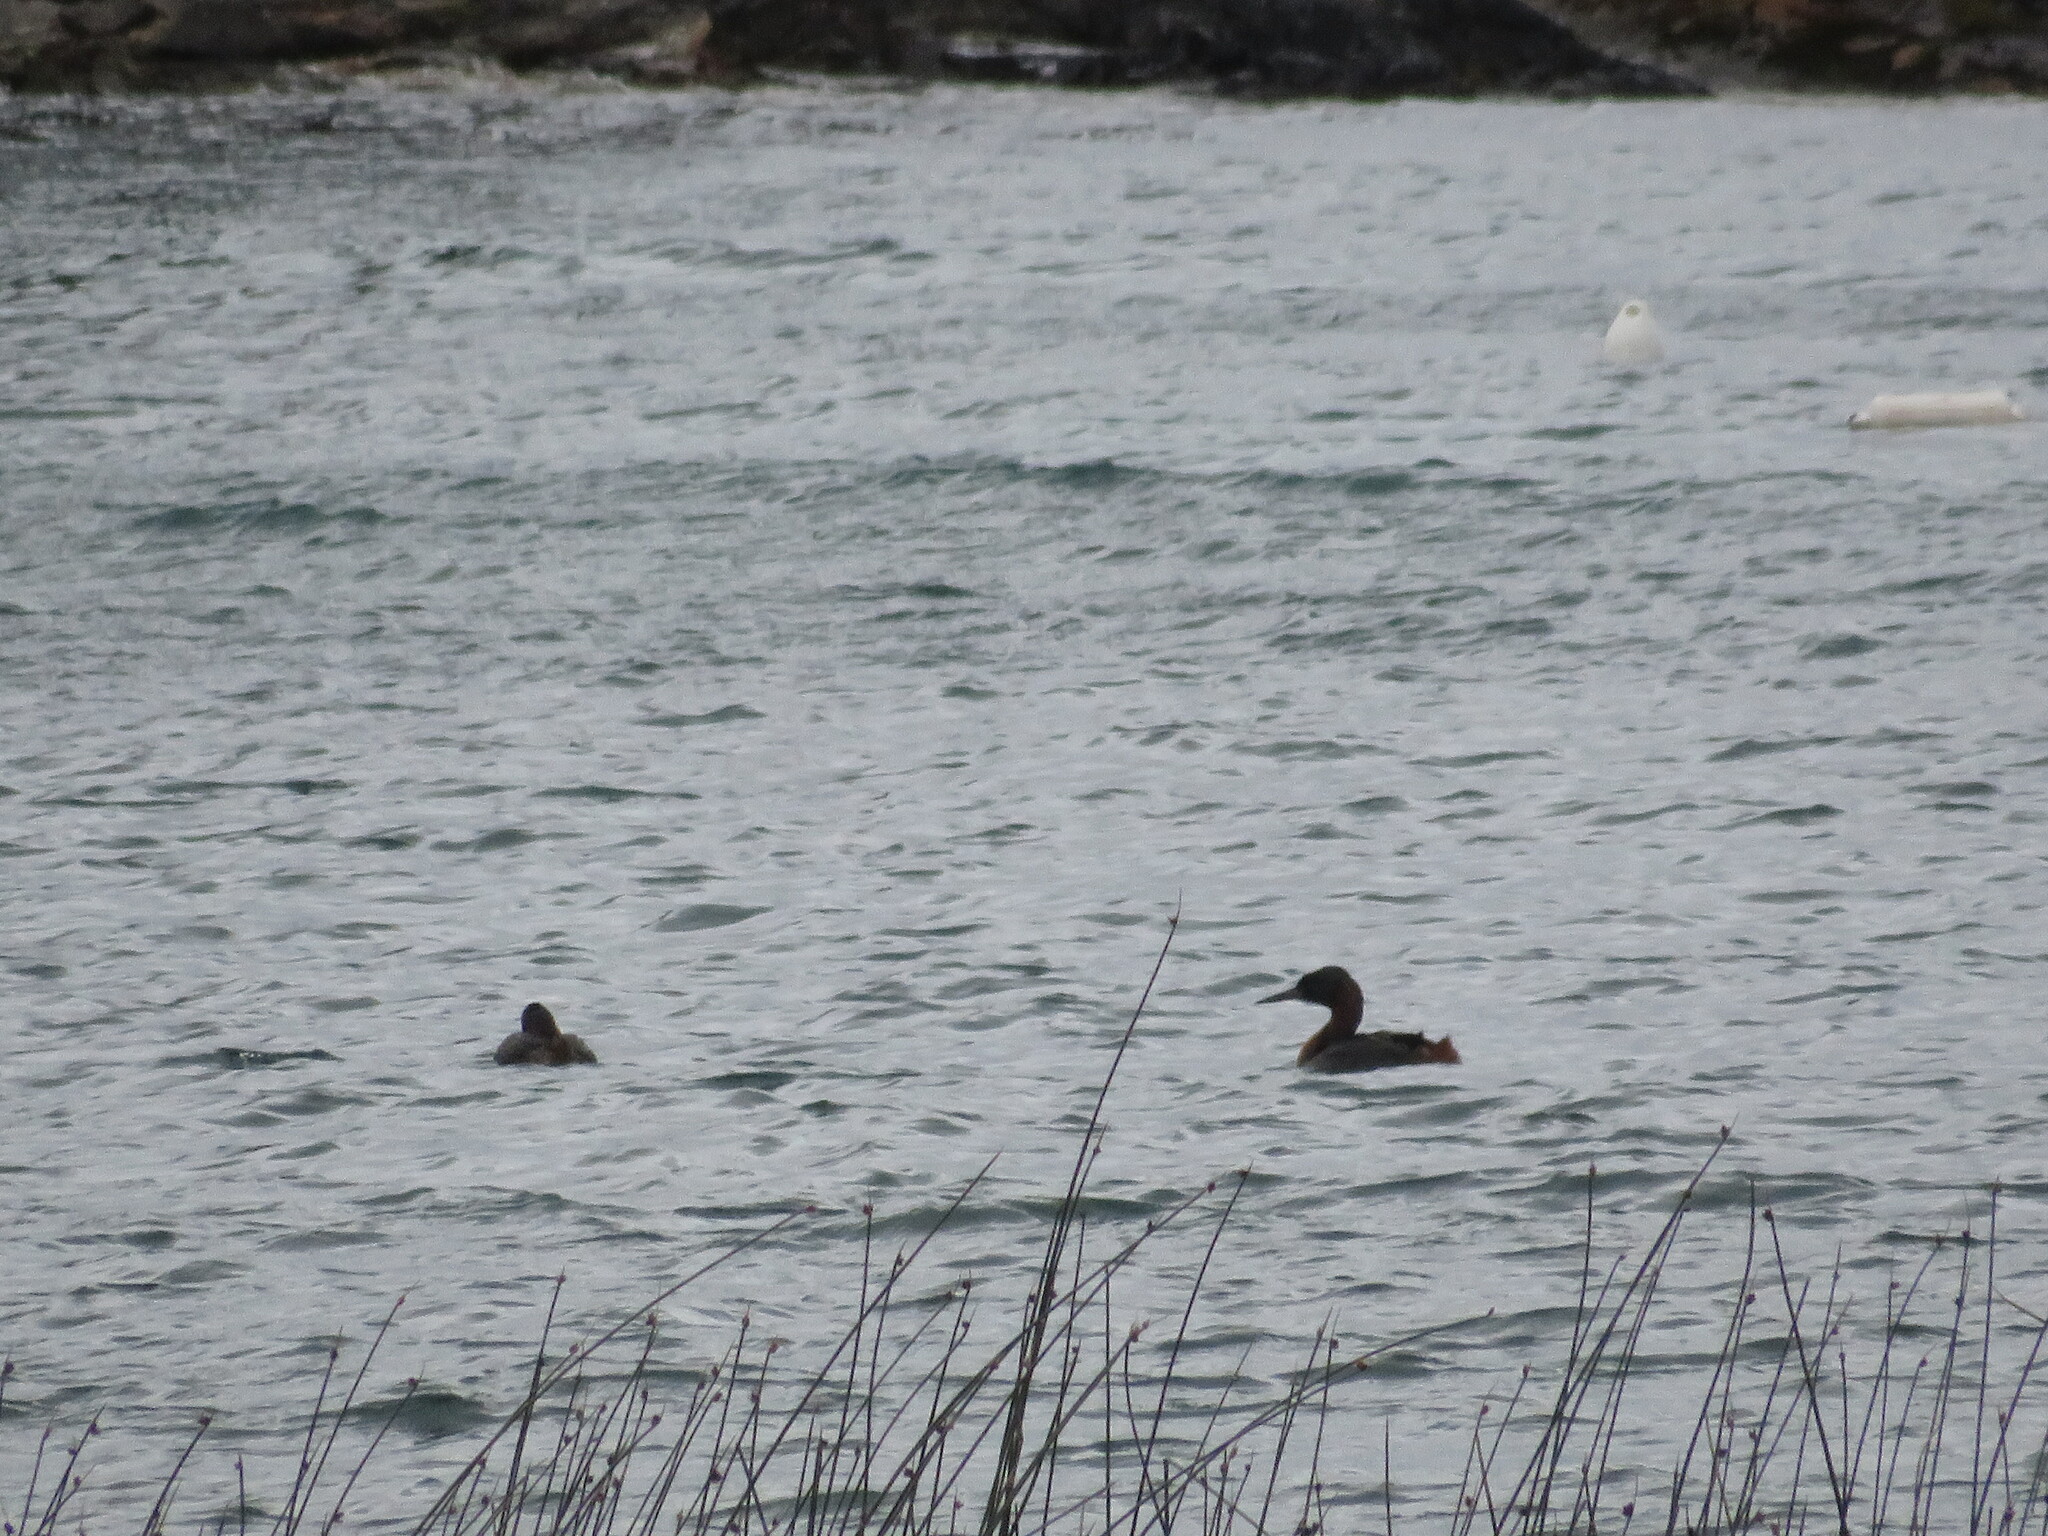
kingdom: Animalia
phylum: Chordata
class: Aves
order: Podicipediformes
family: Podicipedidae
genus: Podiceps
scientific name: Podiceps major
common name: Great grebe
